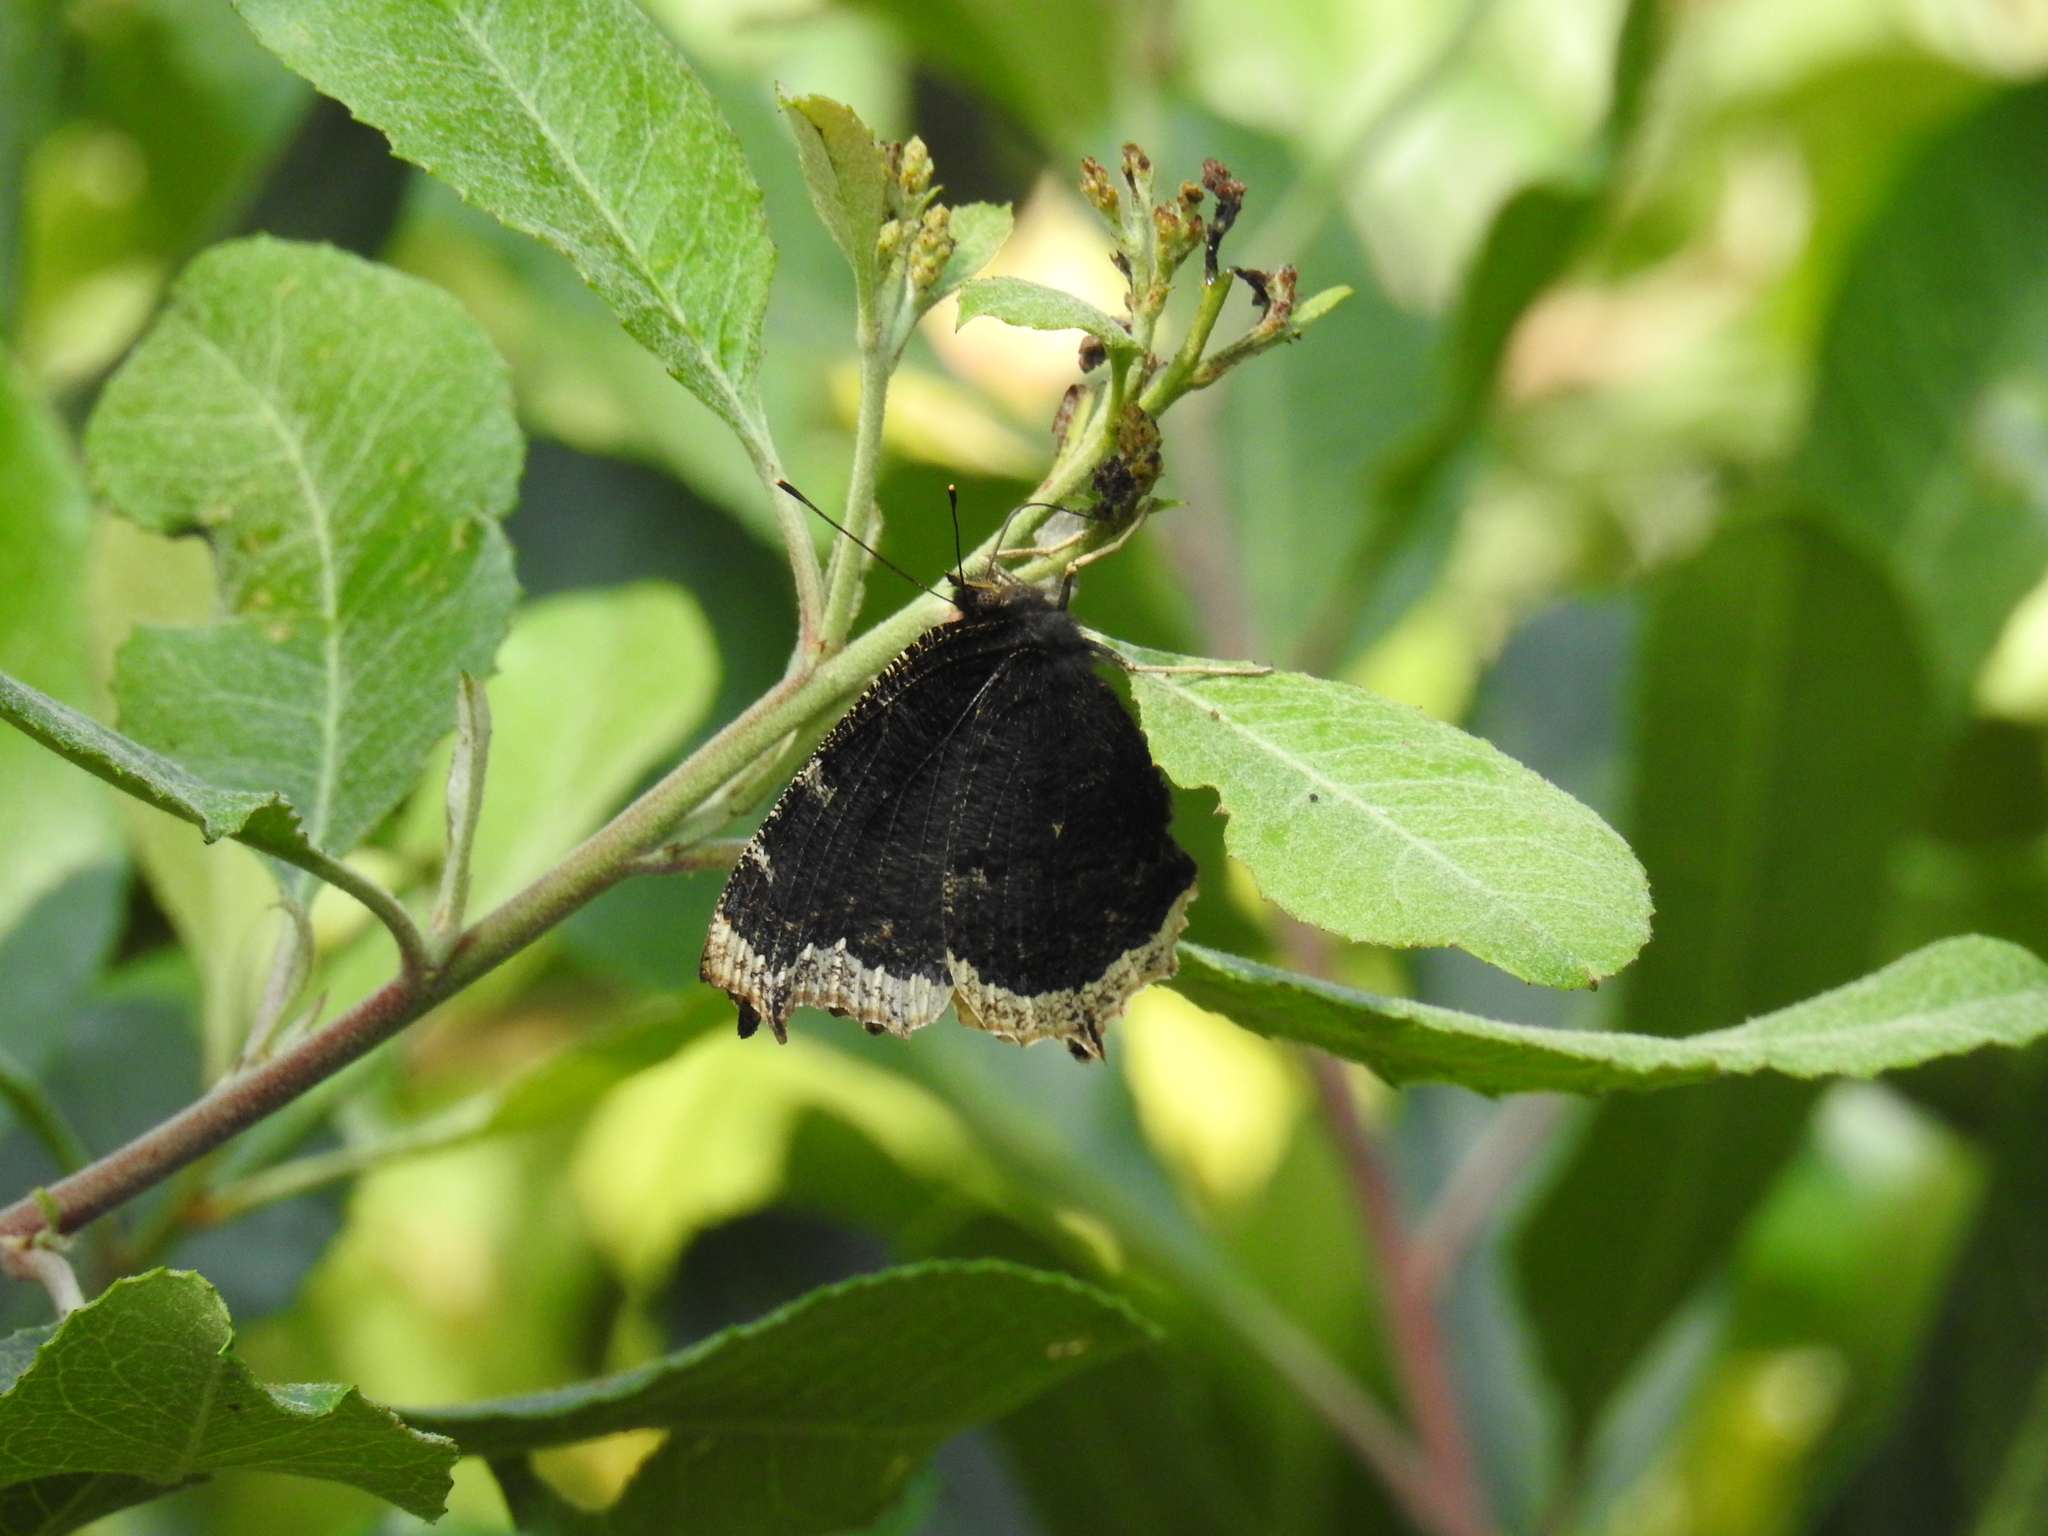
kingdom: Animalia
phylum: Arthropoda
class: Insecta
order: Lepidoptera
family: Nymphalidae
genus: Nymphalis
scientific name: Nymphalis antiopa
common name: Camberwell beauty
